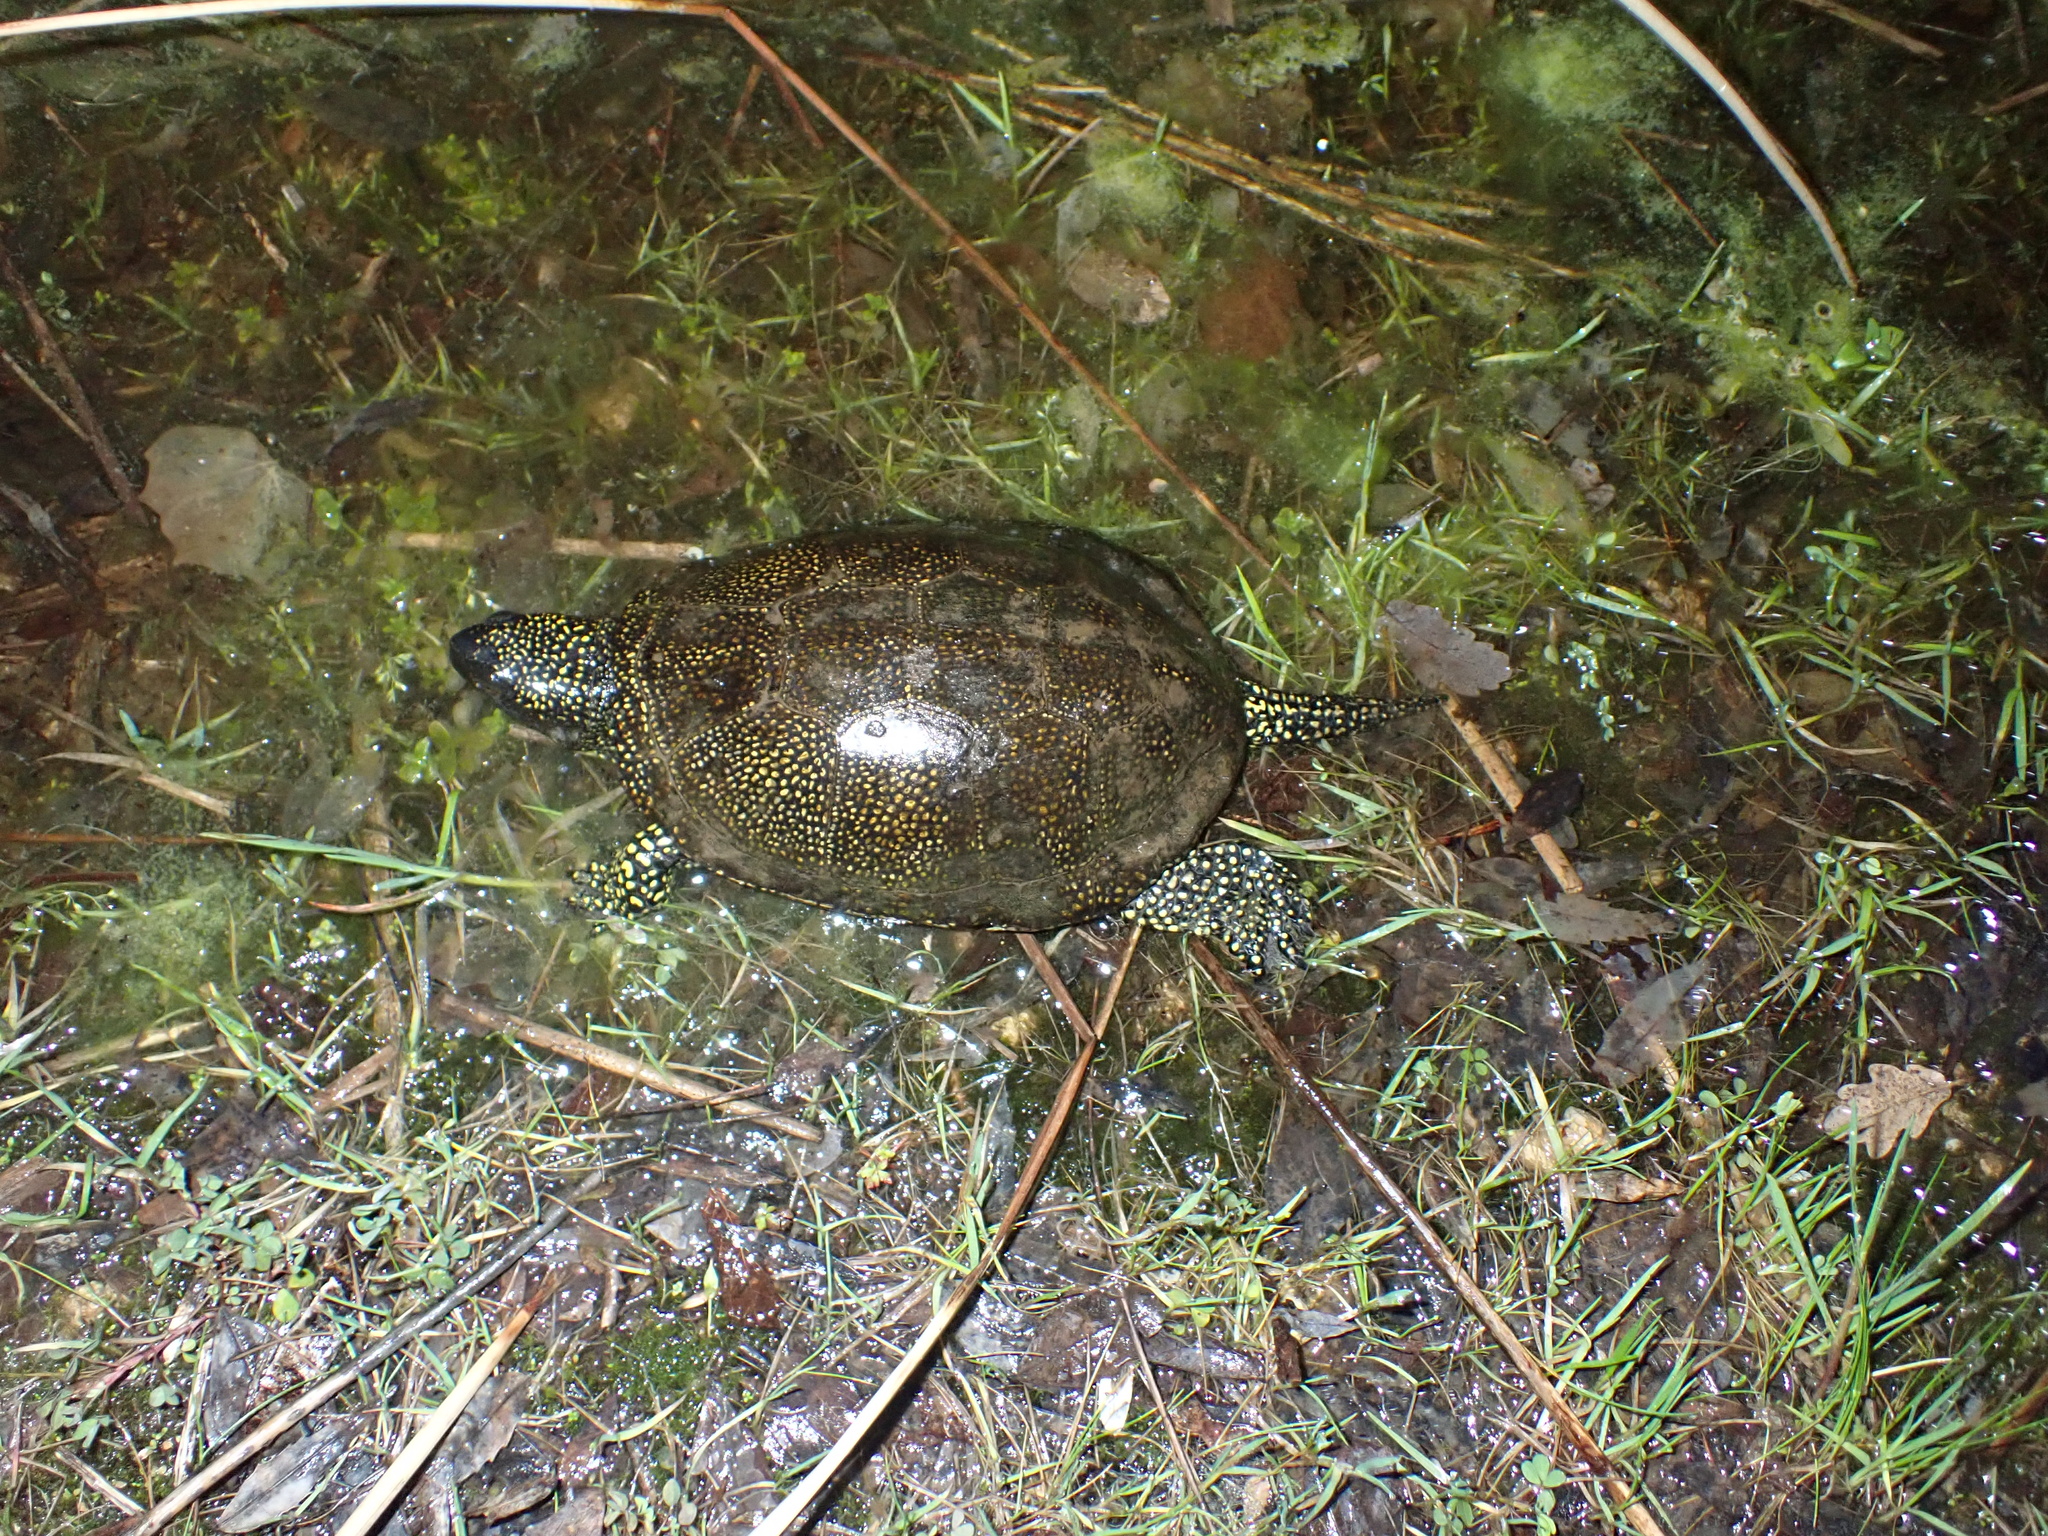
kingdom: Animalia
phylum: Chordata
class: Testudines
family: Emydidae
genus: Emys
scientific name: Emys orbicularis
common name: European pond turtle
